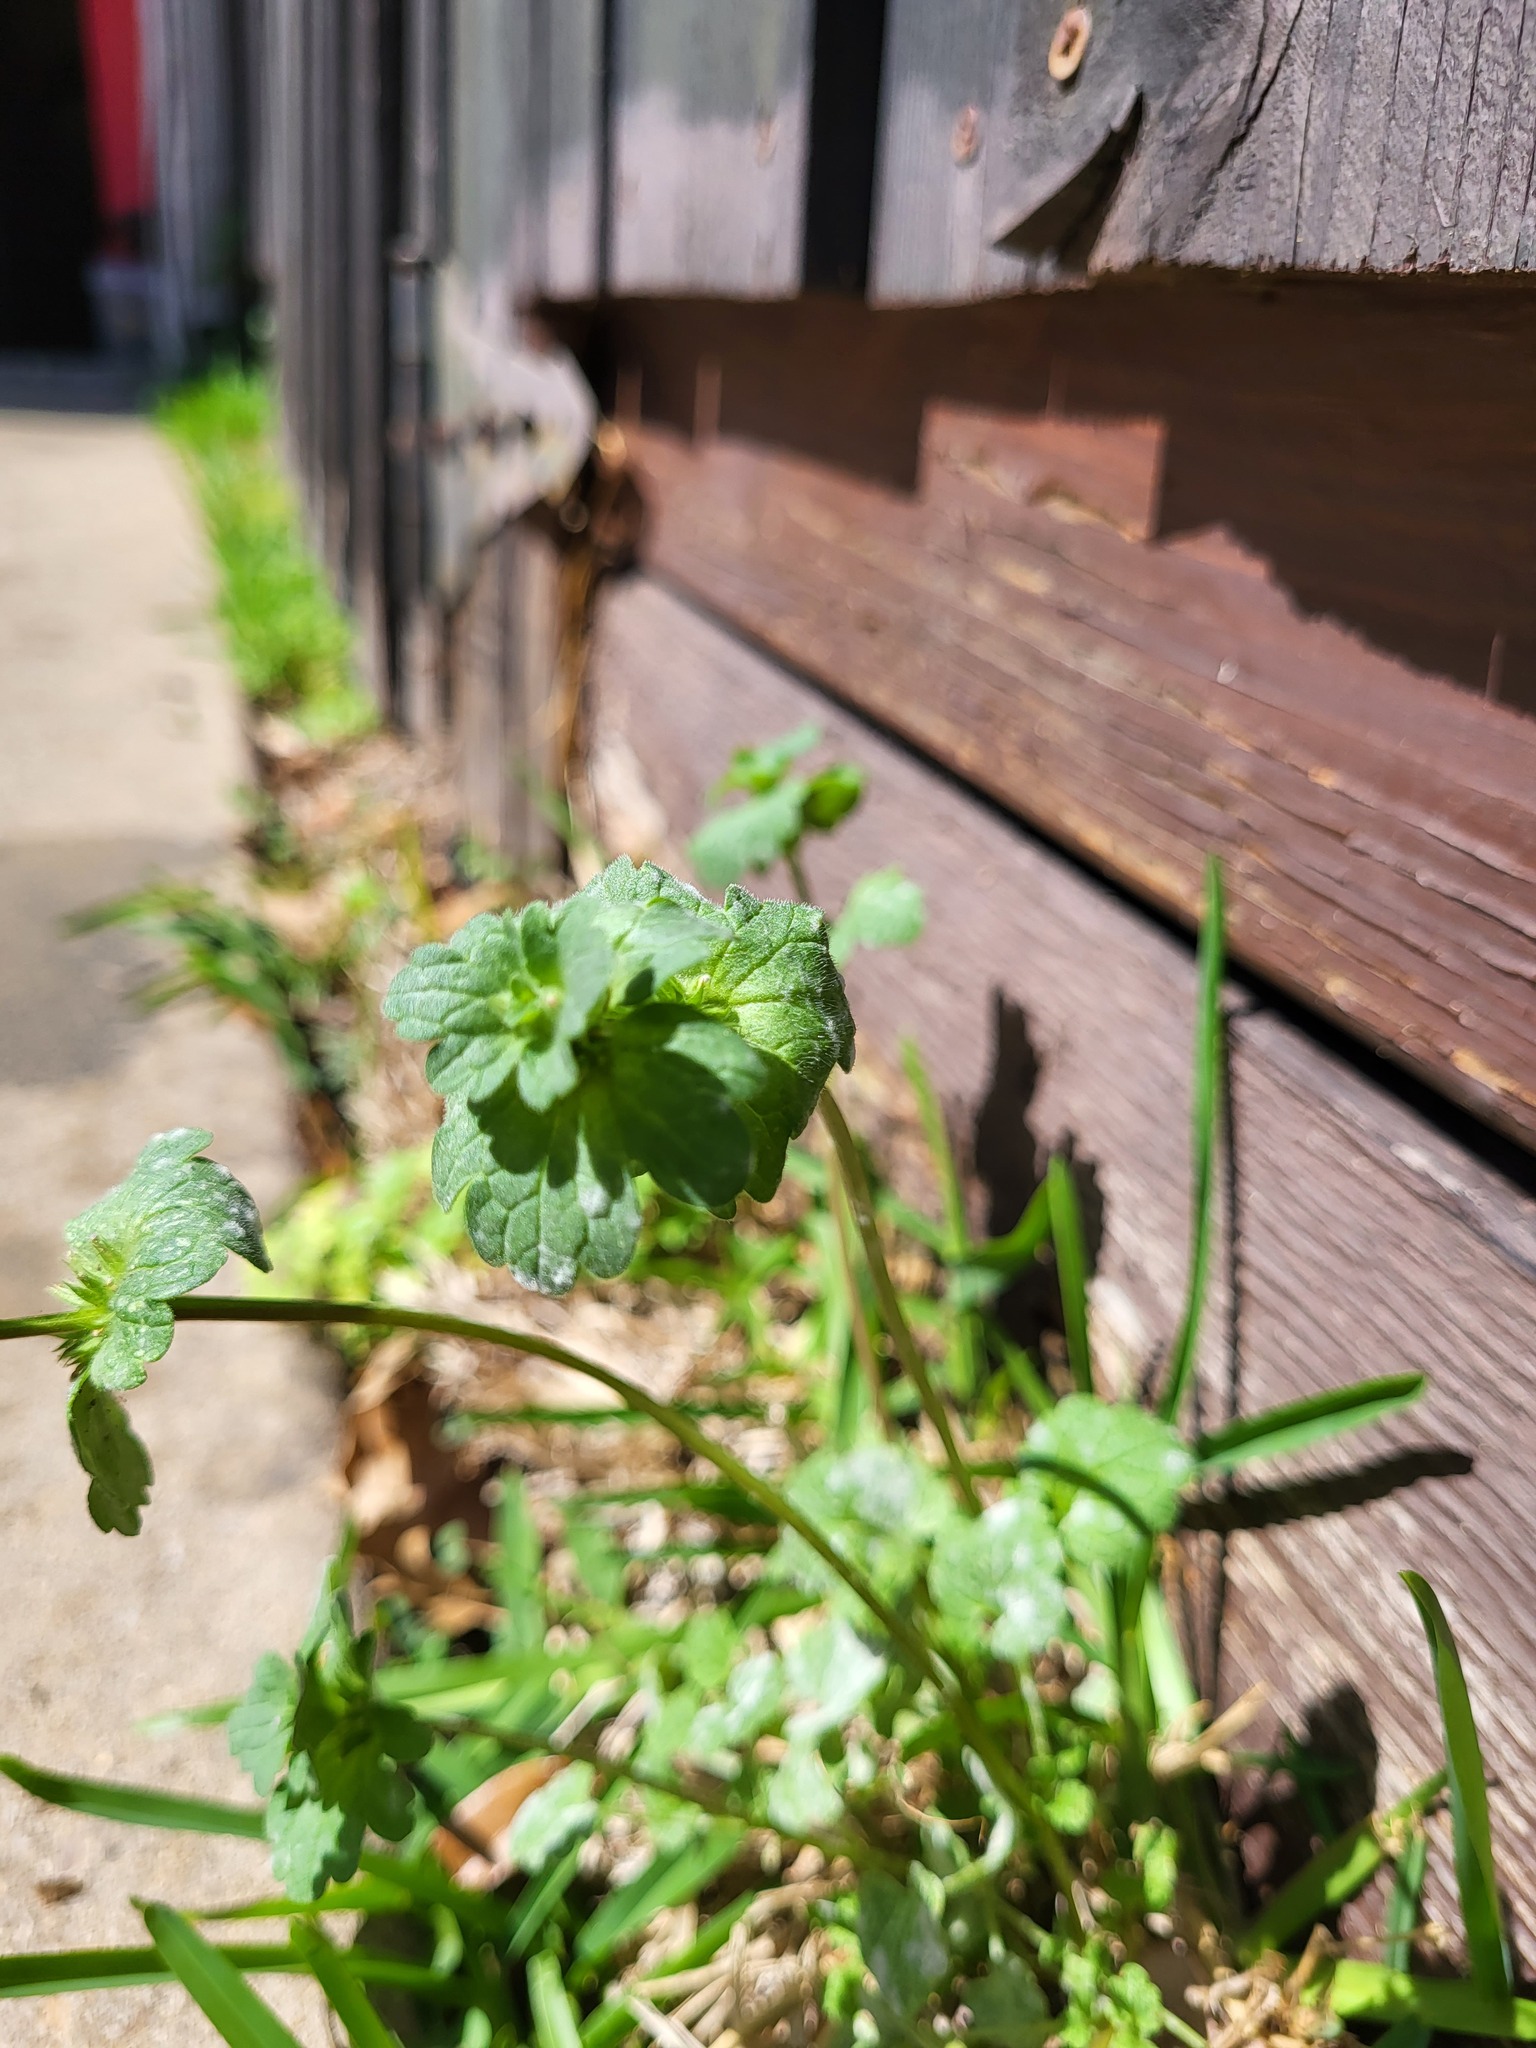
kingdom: Plantae
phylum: Tracheophyta
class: Magnoliopsida
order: Lamiales
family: Lamiaceae
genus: Lamium
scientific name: Lamium amplexicaule
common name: Henbit dead-nettle
